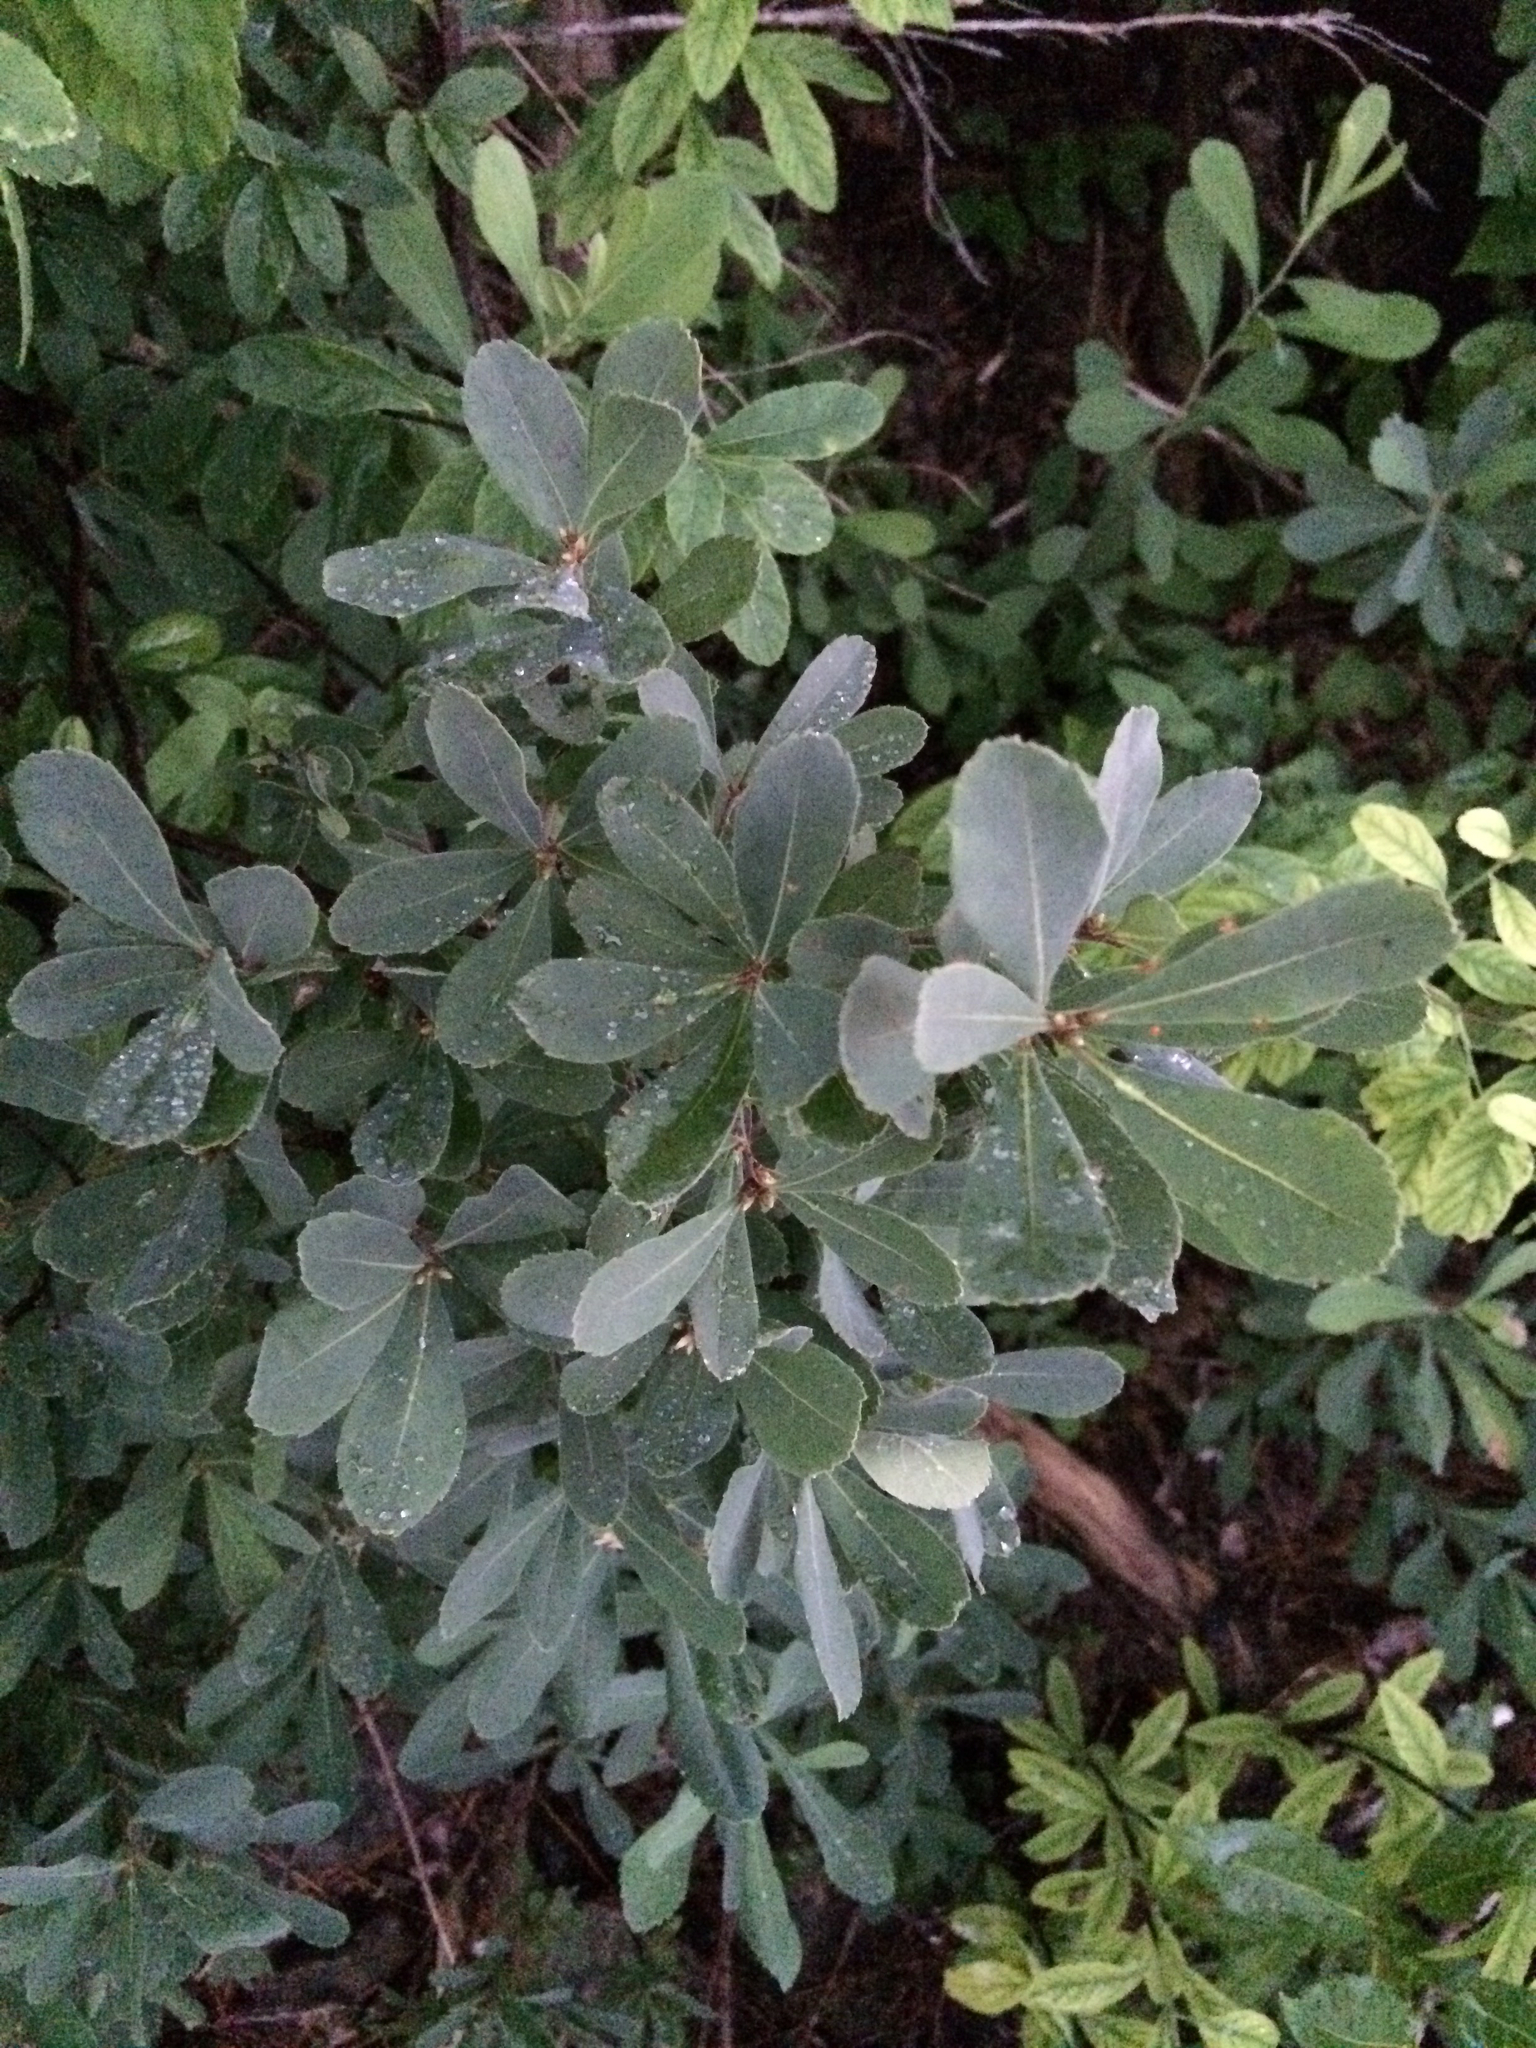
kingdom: Plantae
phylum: Tracheophyta
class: Magnoliopsida
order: Fagales
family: Myricaceae
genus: Myrica
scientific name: Myrica gale
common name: Sweet gale
